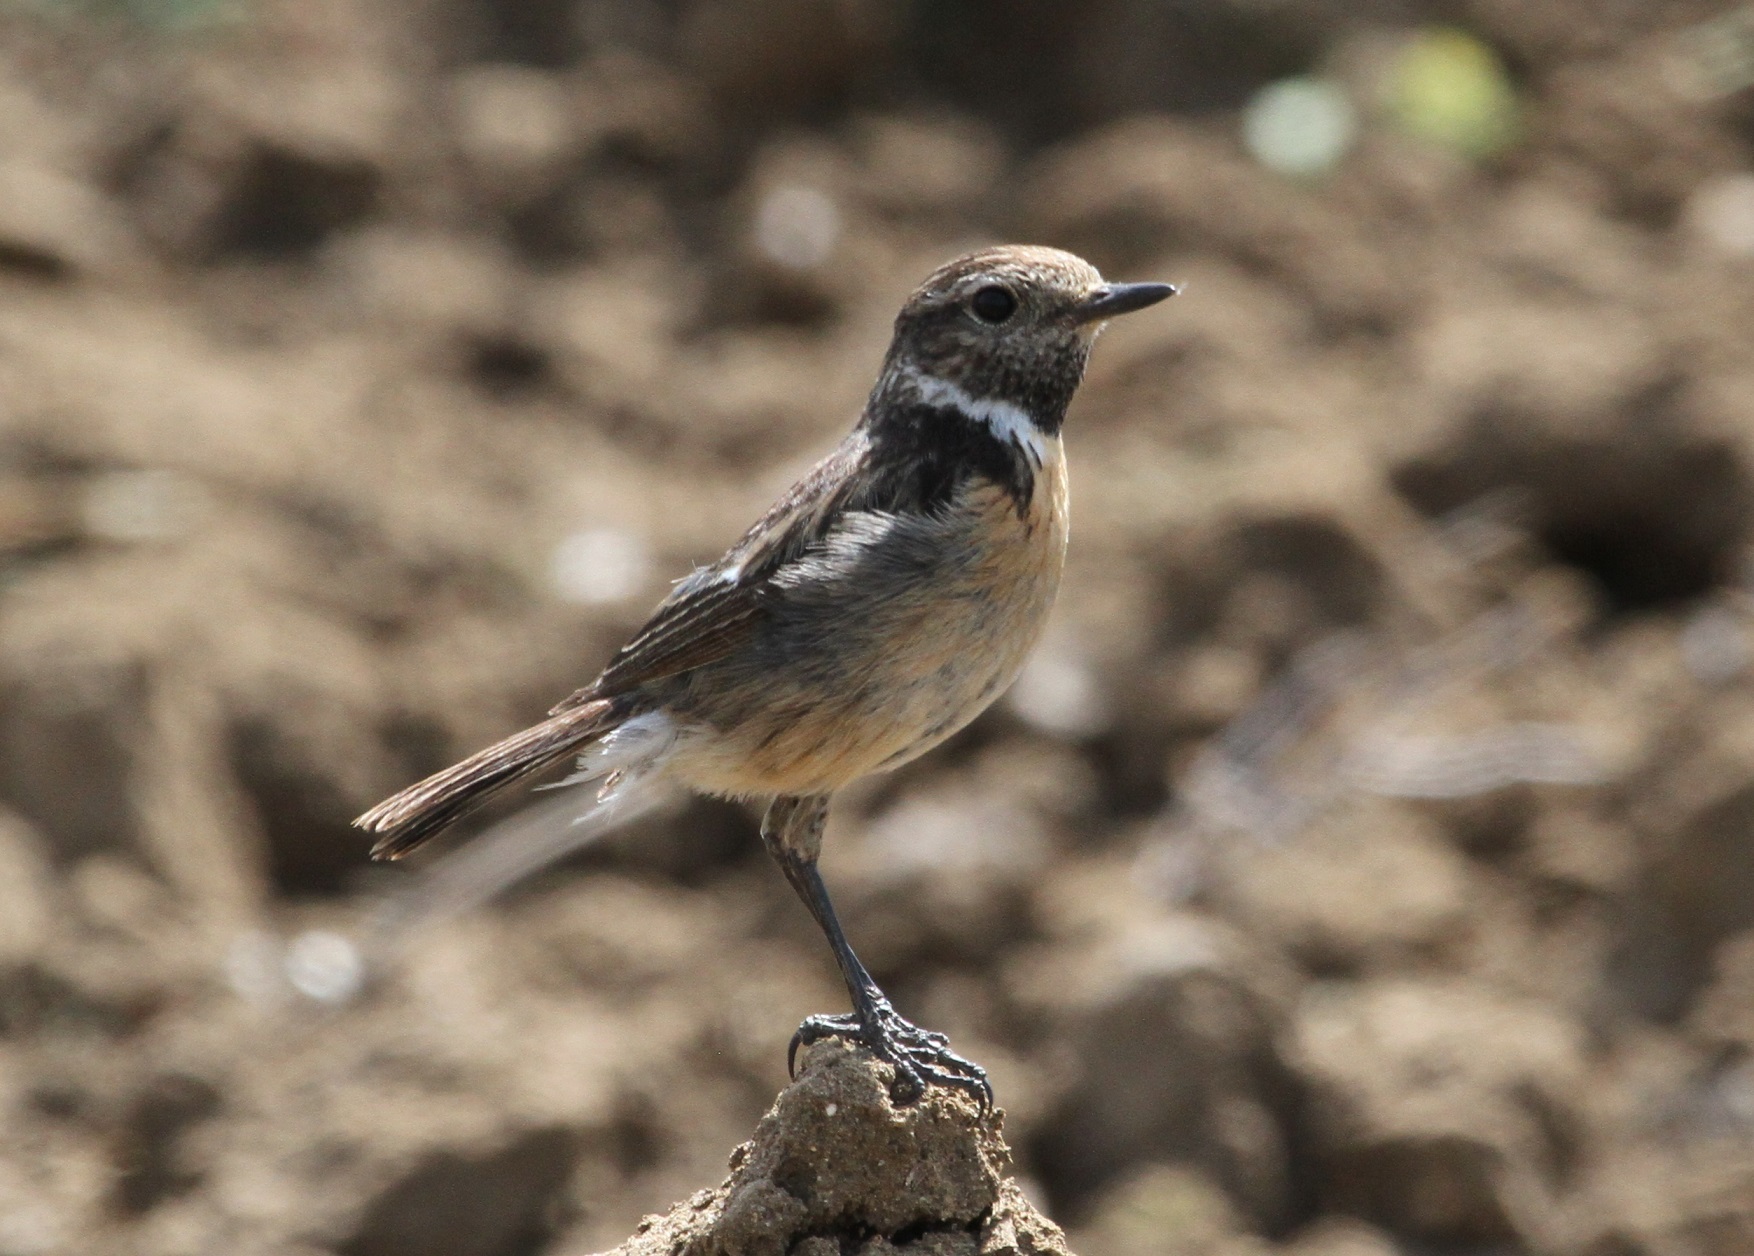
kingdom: Animalia
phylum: Chordata
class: Aves
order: Passeriformes
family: Muscicapidae
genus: Saxicola
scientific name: Saxicola rubicola
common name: European stonechat
